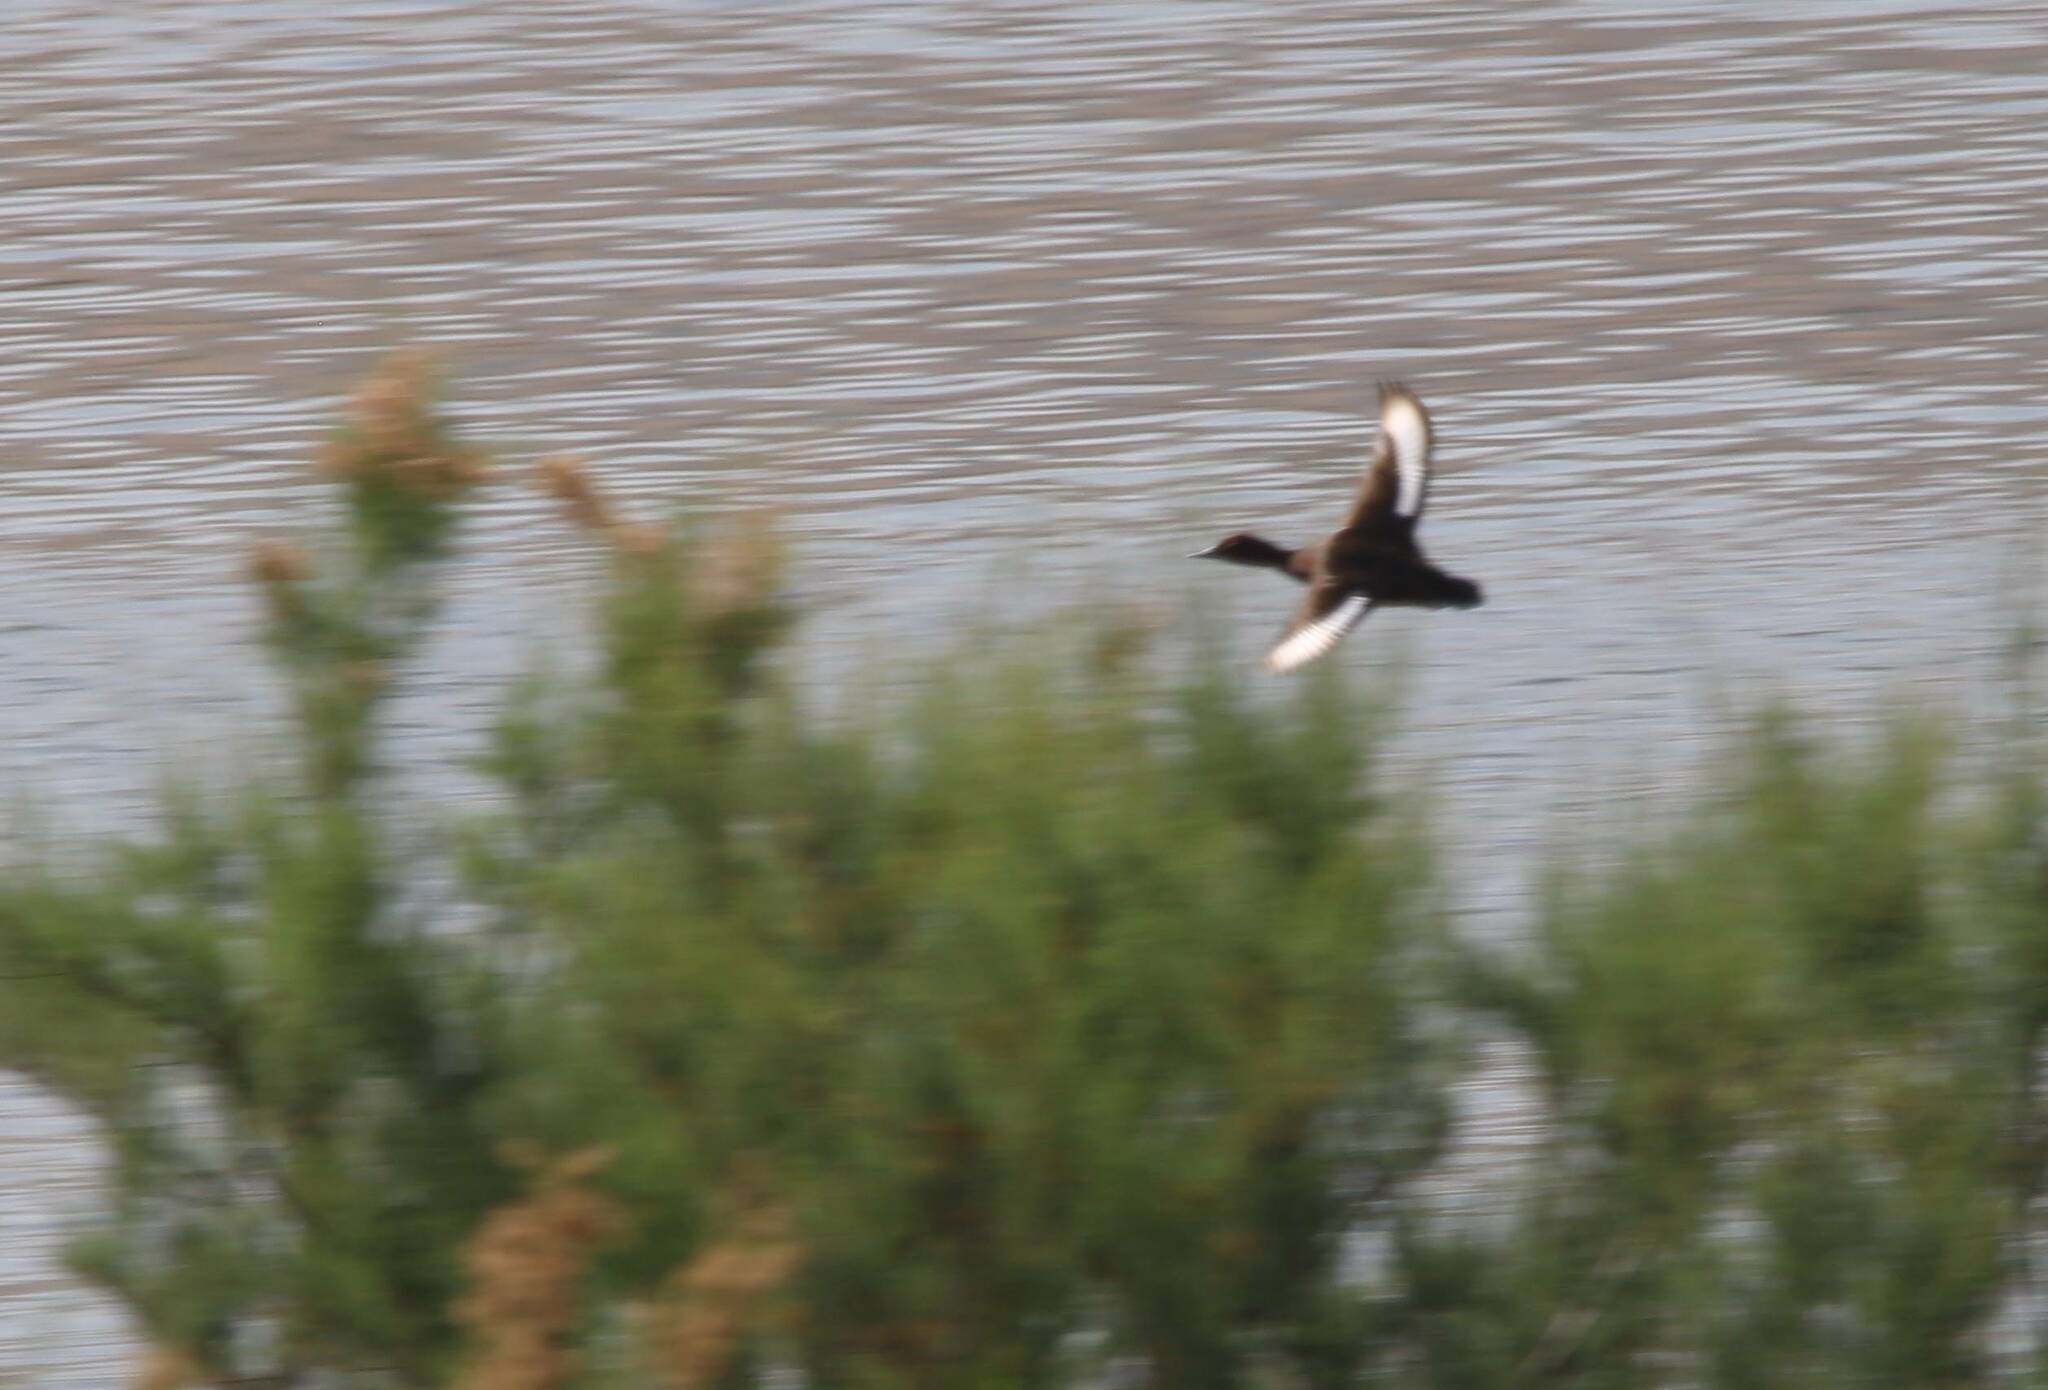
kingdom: Animalia
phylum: Chordata
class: Aves
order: Anseriformes
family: Anatidae
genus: Aythya
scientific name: Aythya nyroca
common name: Ferruginous duck
